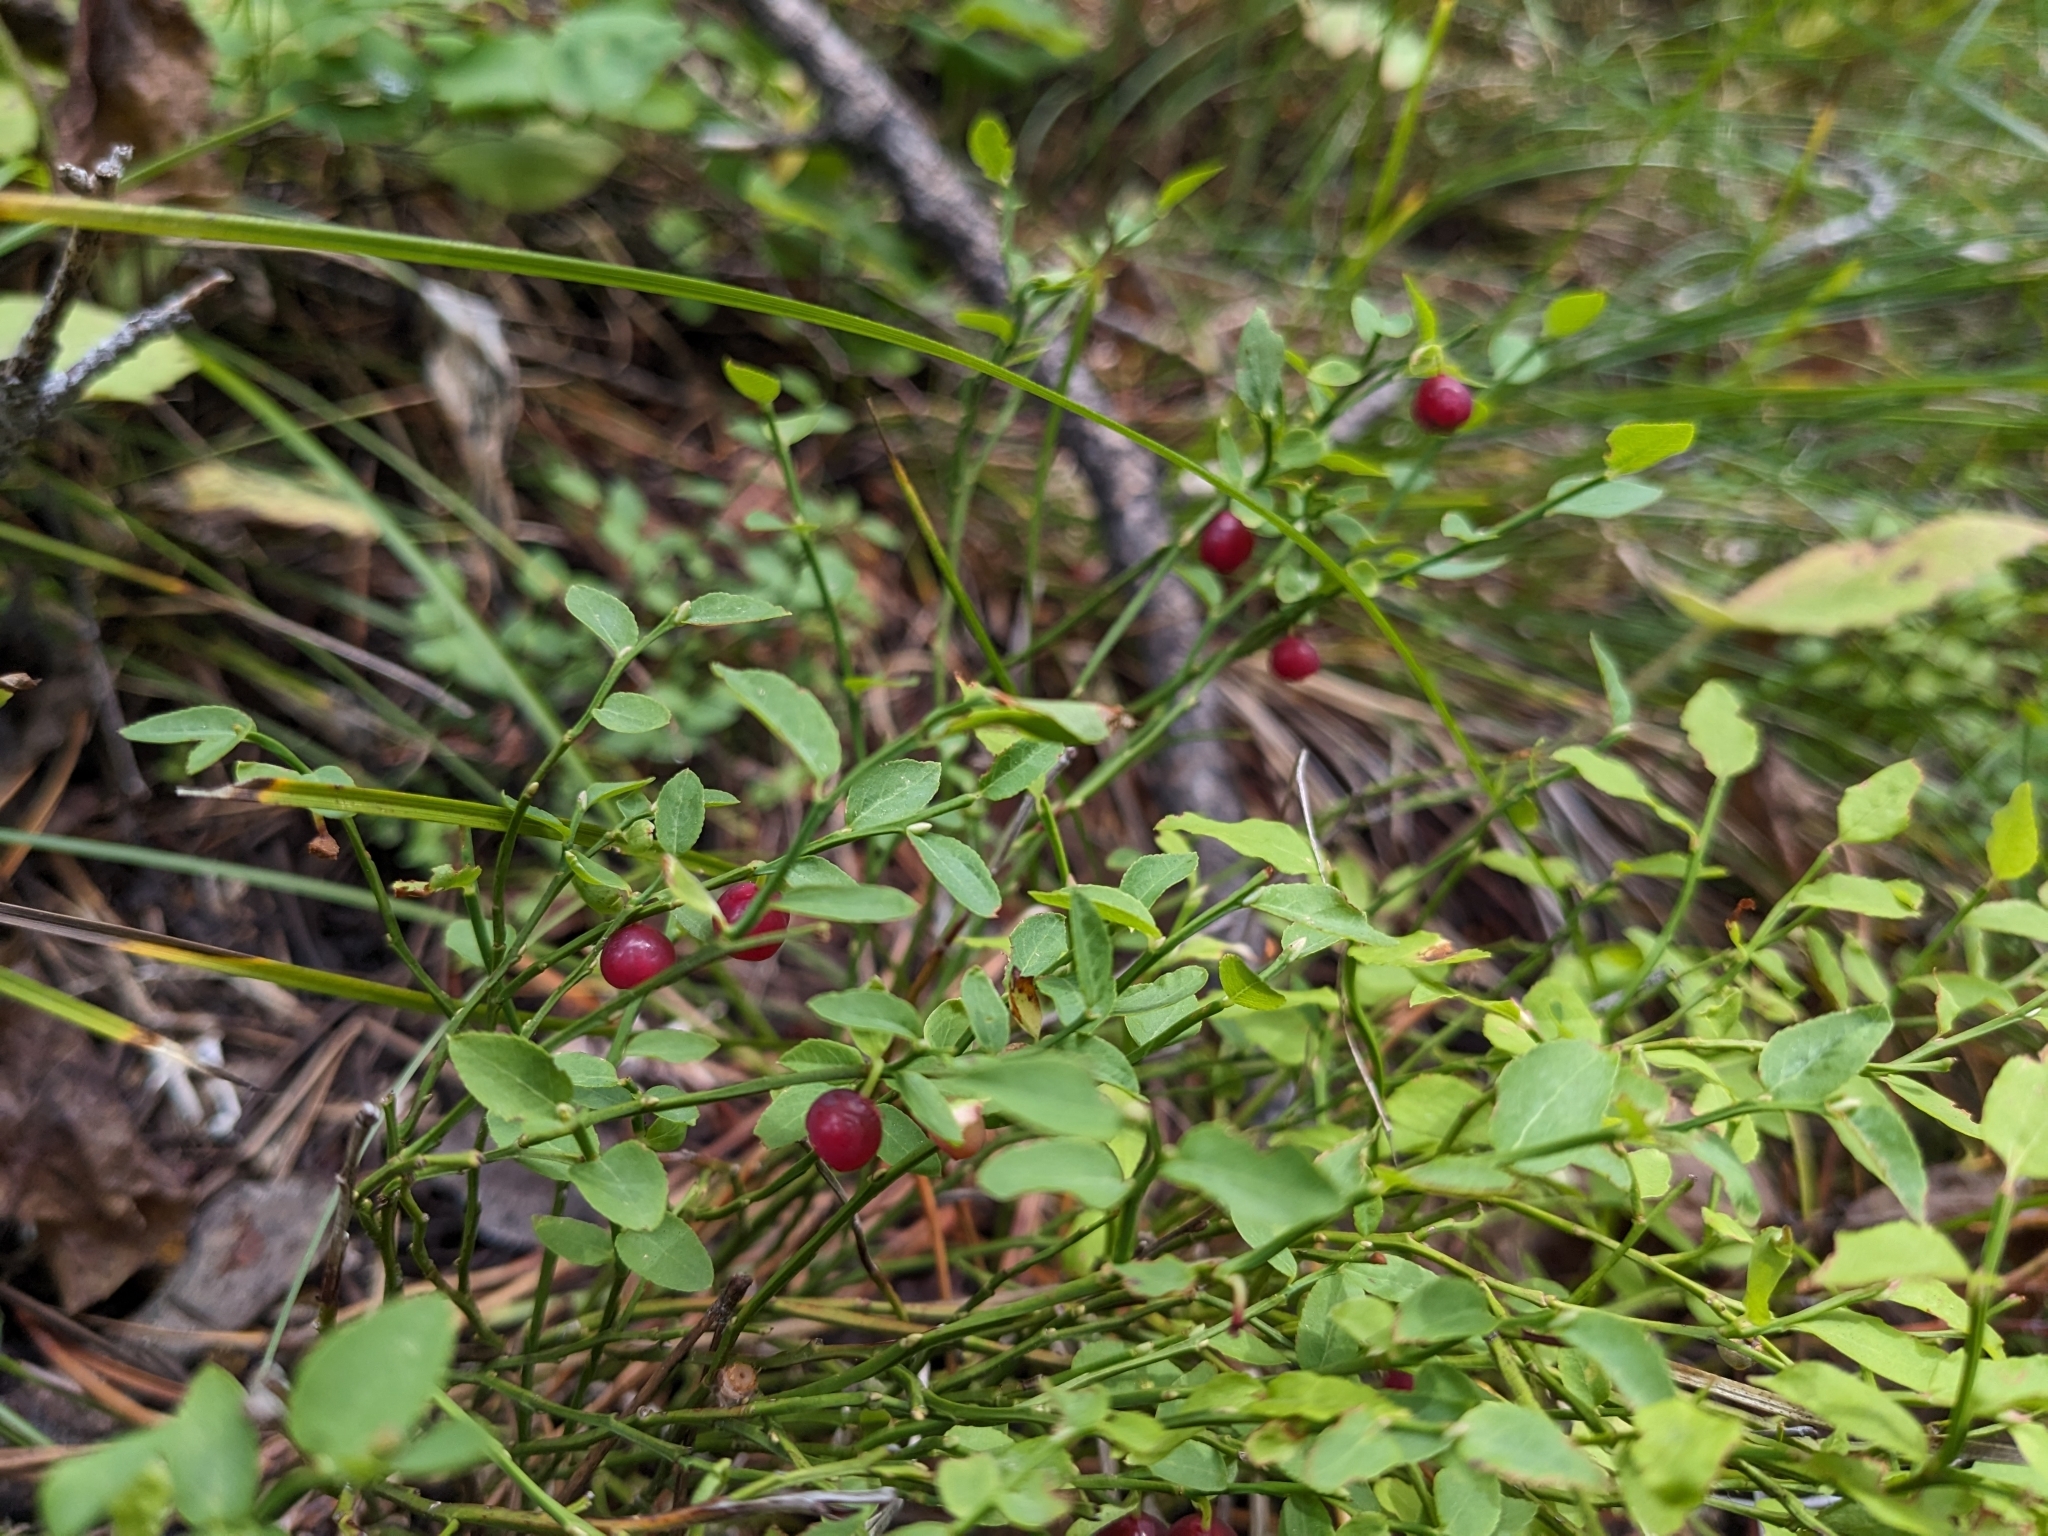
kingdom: Plantae
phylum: Tracheophyta
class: Magnoliopsida
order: Ericales
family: Ericaceae
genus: Vaccinium
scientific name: Vaccinium scoparium
